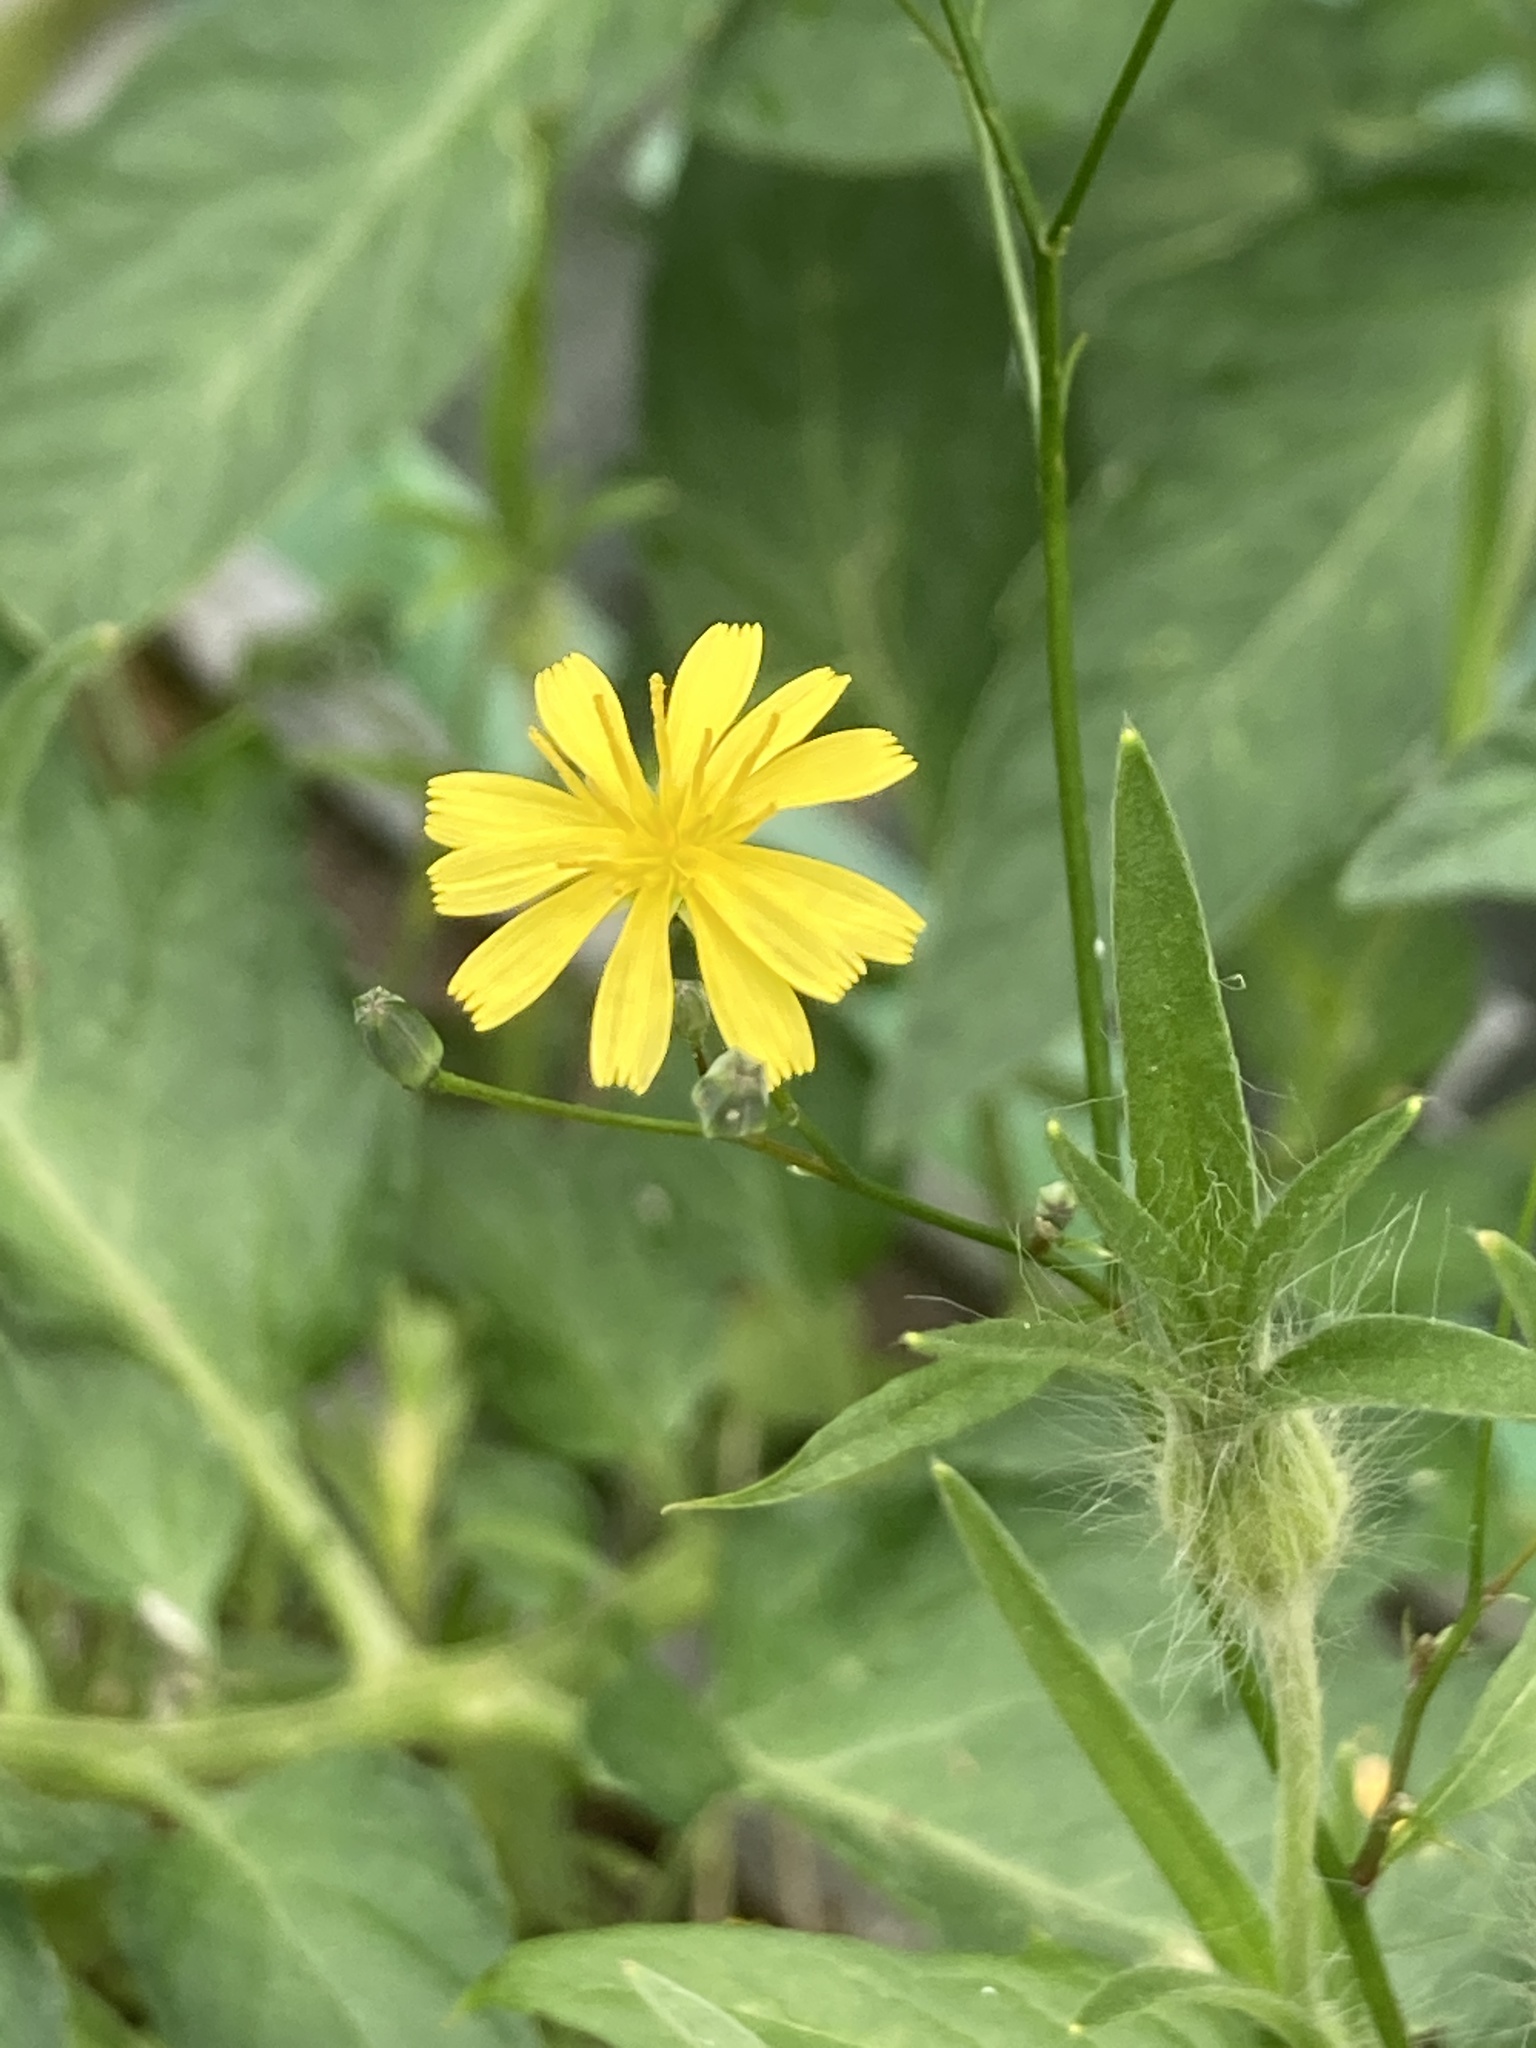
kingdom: Plantae
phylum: Tracheophyta
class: Magnoliopsida
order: Asterales
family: Asteraceae
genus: Lapsana
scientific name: Lapsana communis
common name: Nipplewort
